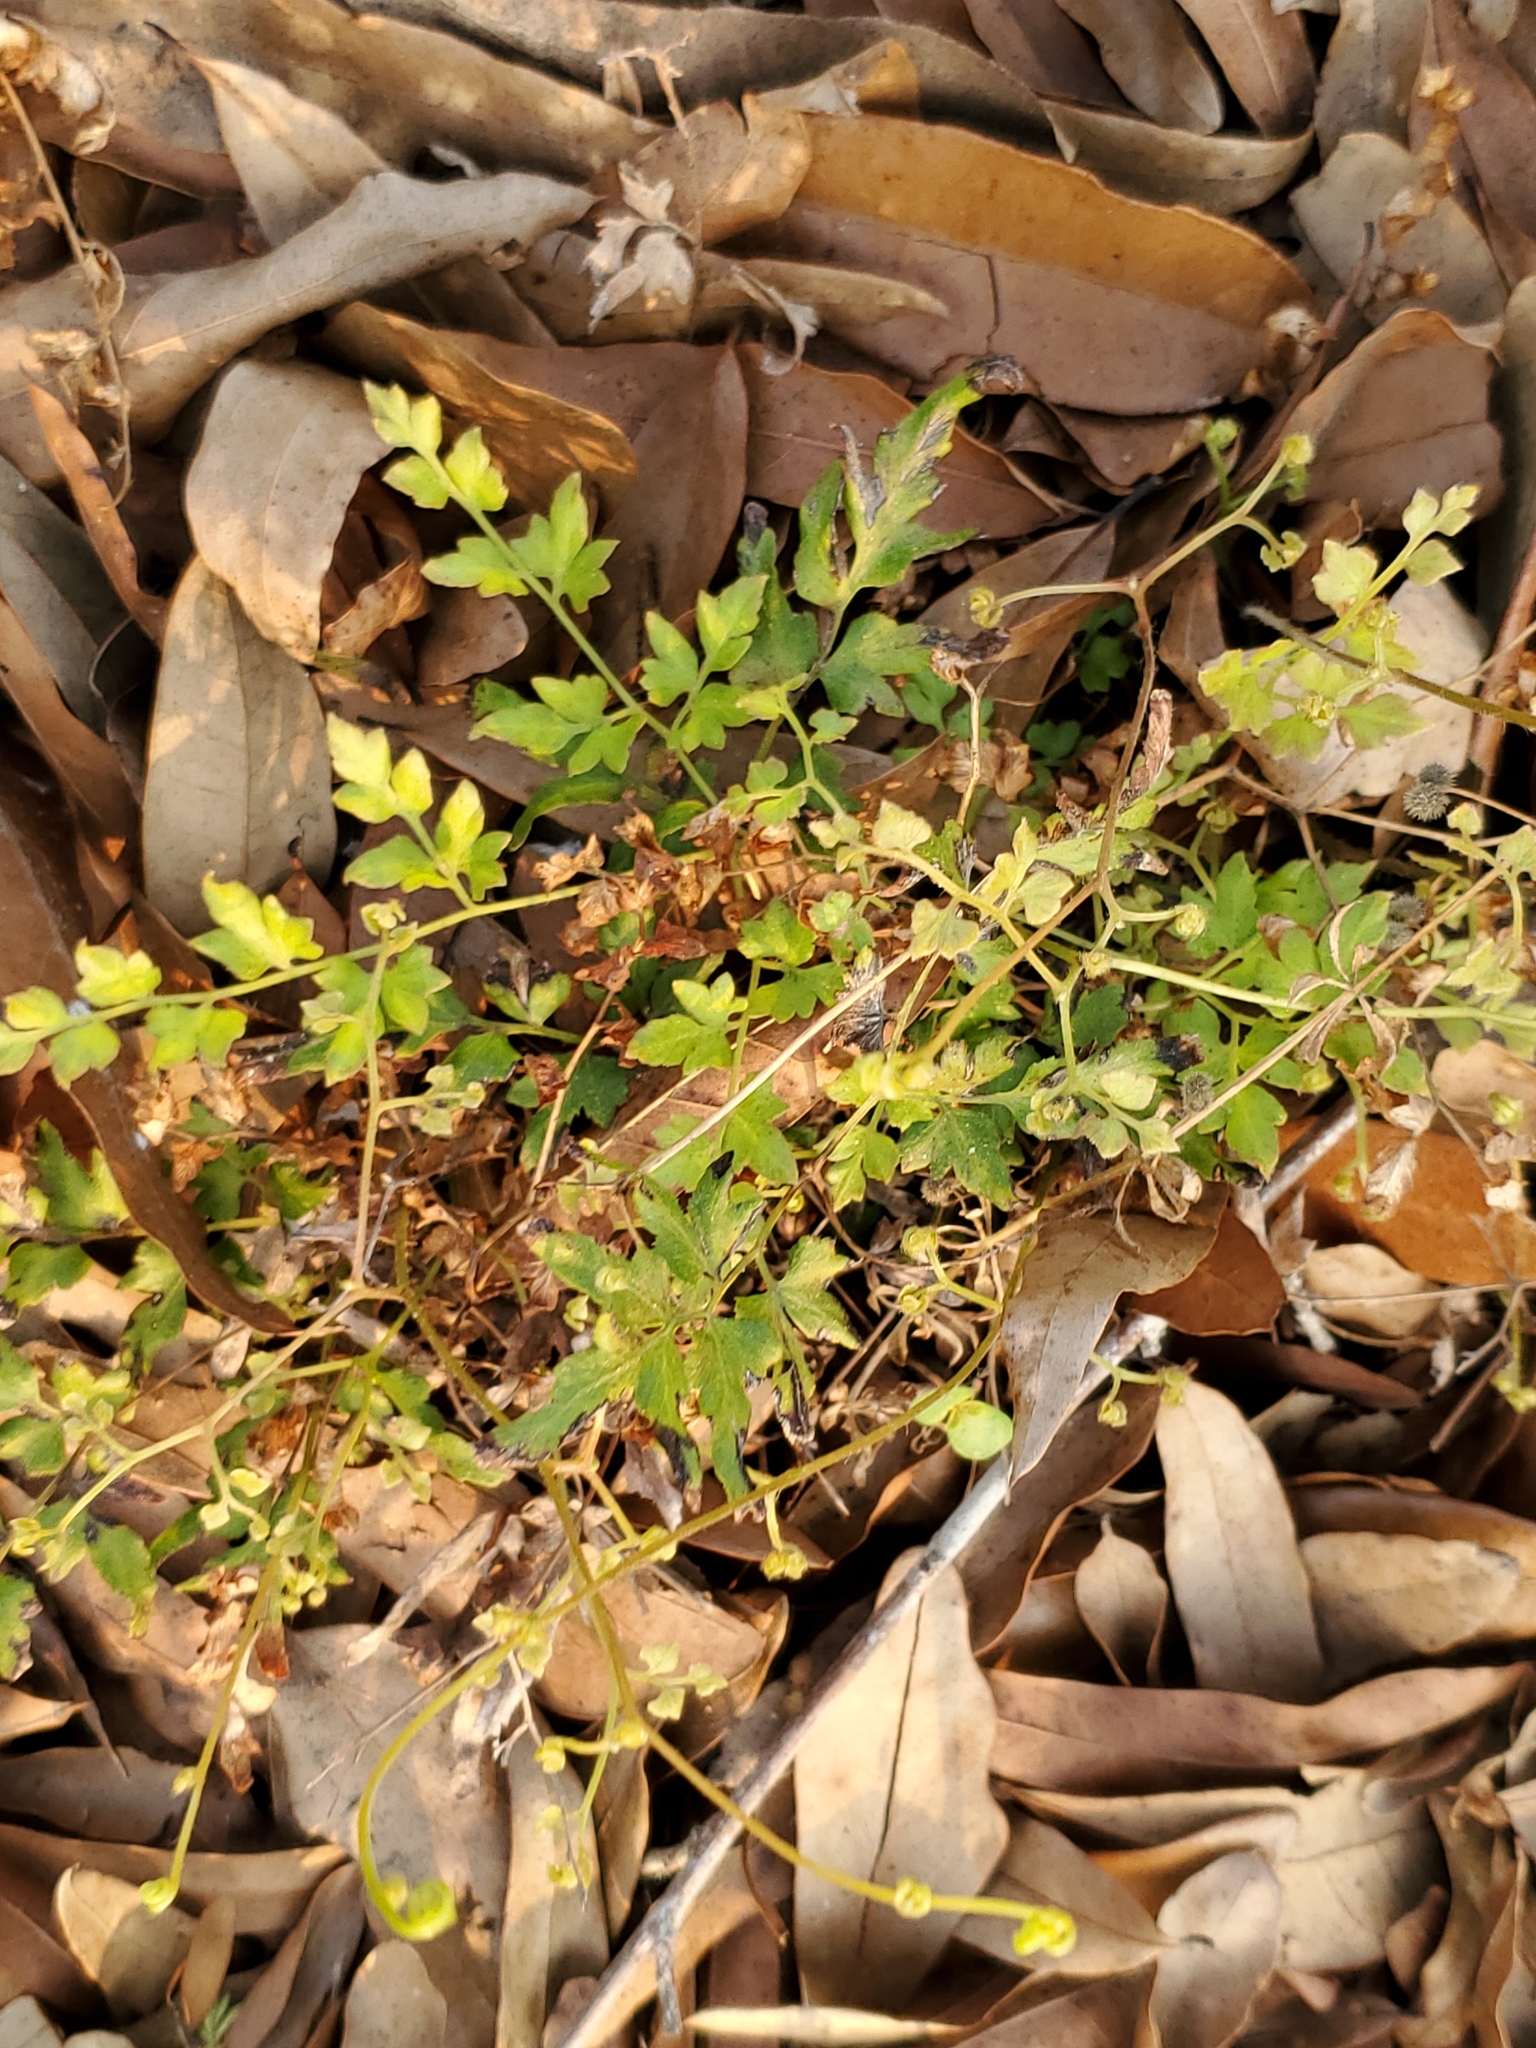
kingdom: Plantae
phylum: Tracheophyta
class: Polypodiopsida
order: Schizaeales
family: Lygodiaceae
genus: Lygodium
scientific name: Lygodium japonicum
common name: Japanese climbing fern
